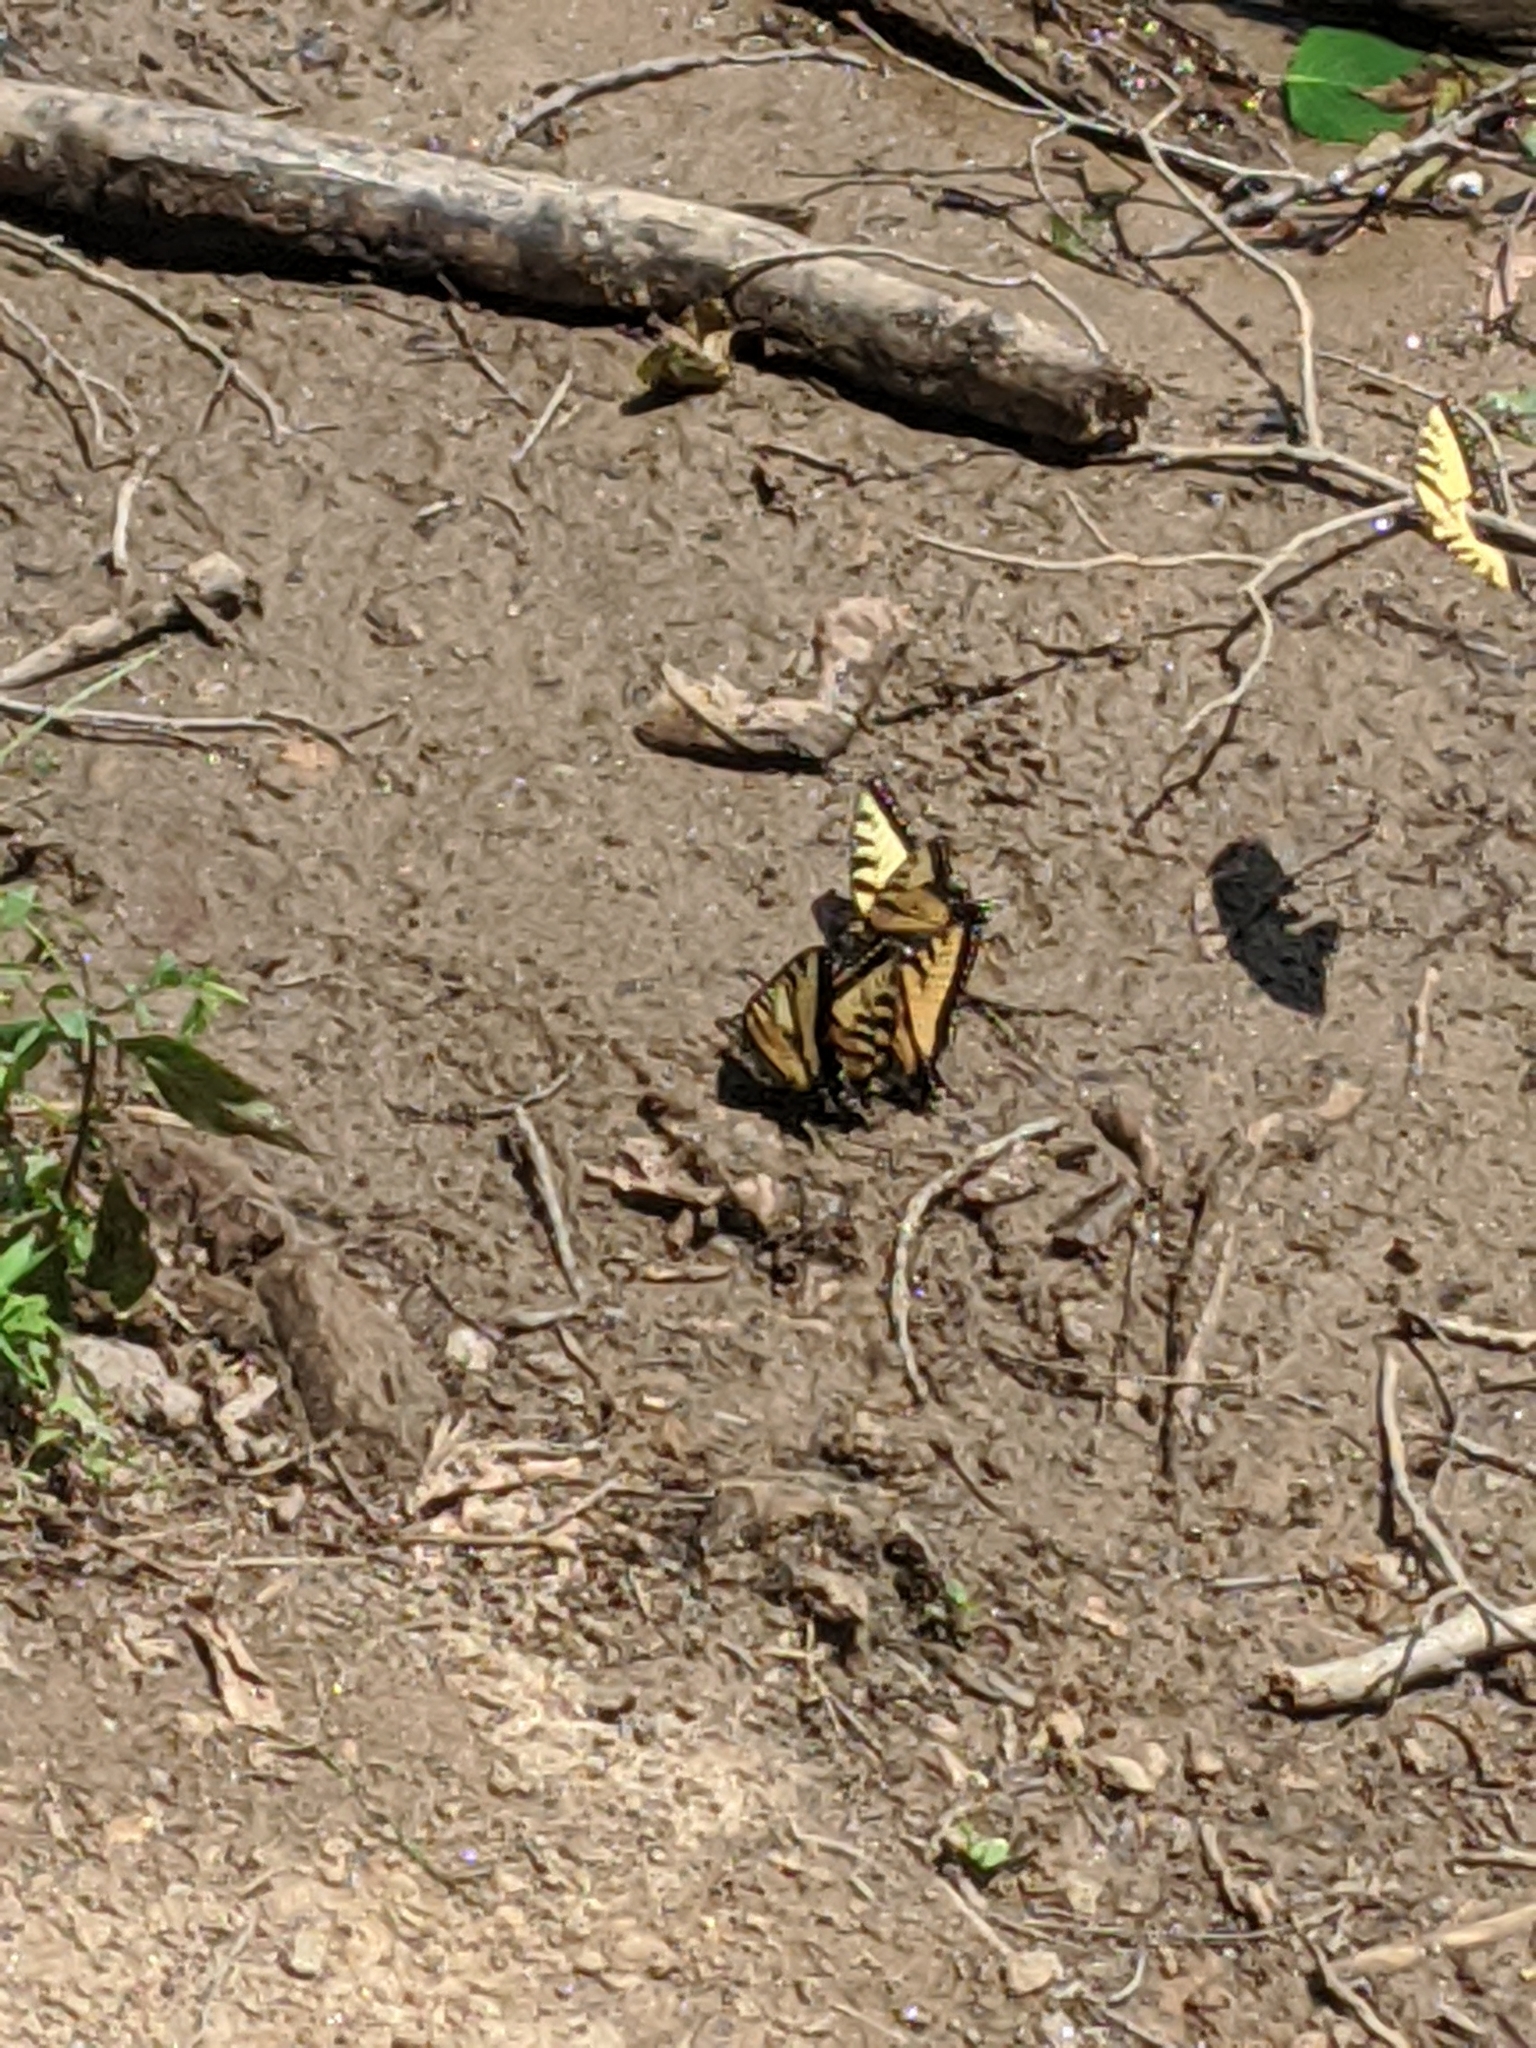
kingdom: Animalia
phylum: Arthropoda
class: Insecta
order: Lepidoptera
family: Papilionidae
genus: Papilio
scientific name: Papilio glaucus
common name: Tiger swallowtail
